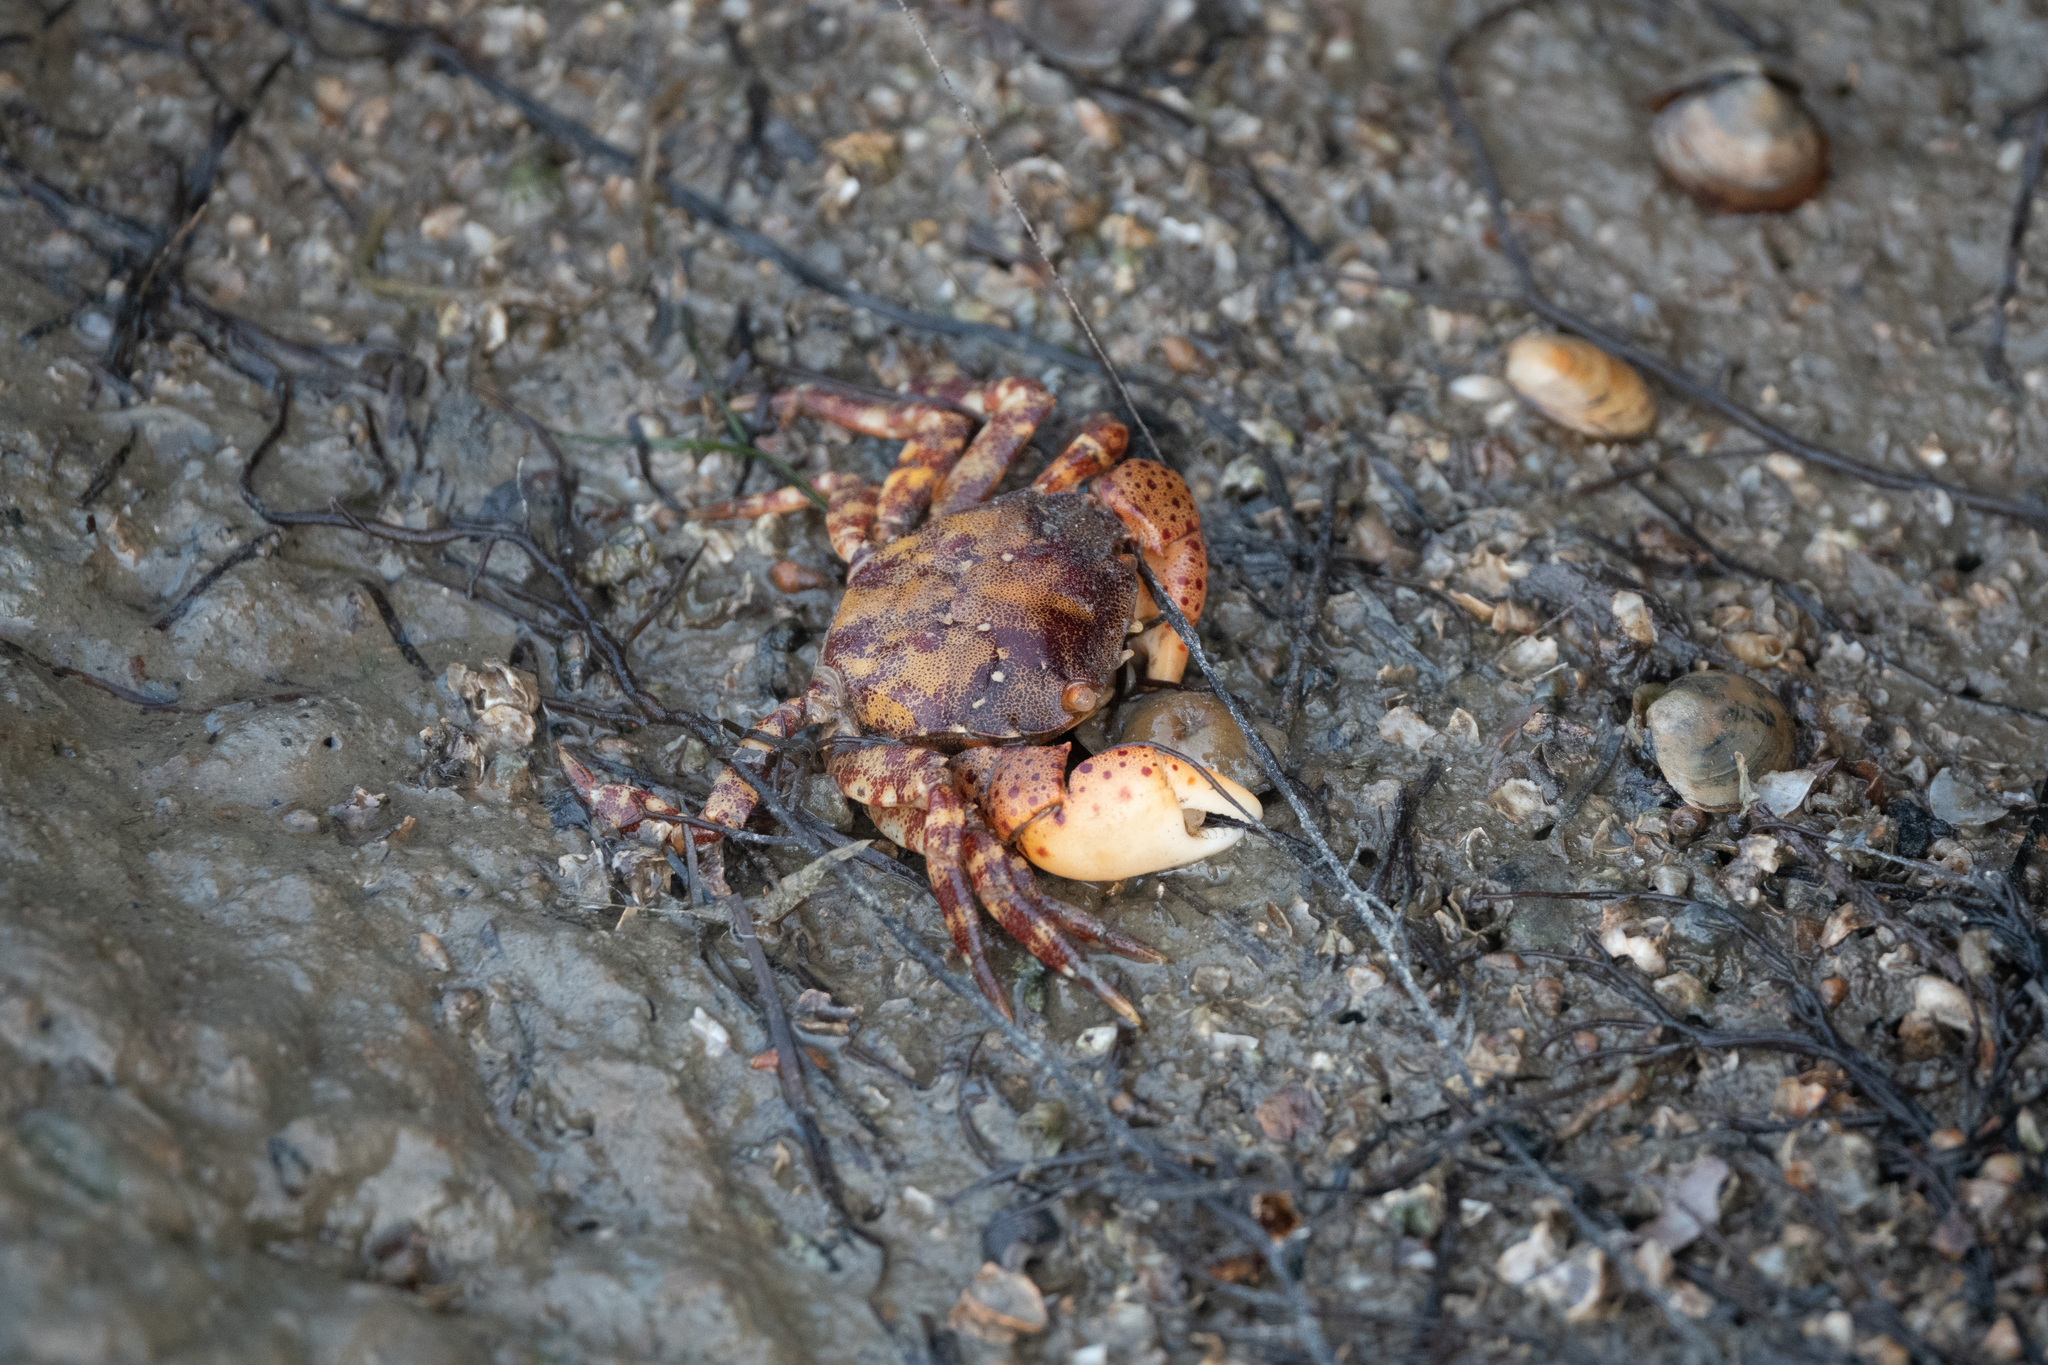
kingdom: Animalia
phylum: Arthropoda
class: Malacostraca
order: Decapoda
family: Varunidae
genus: Hemigrapsus
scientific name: Hemigrapsus sanguineus
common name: Asian shore crab
